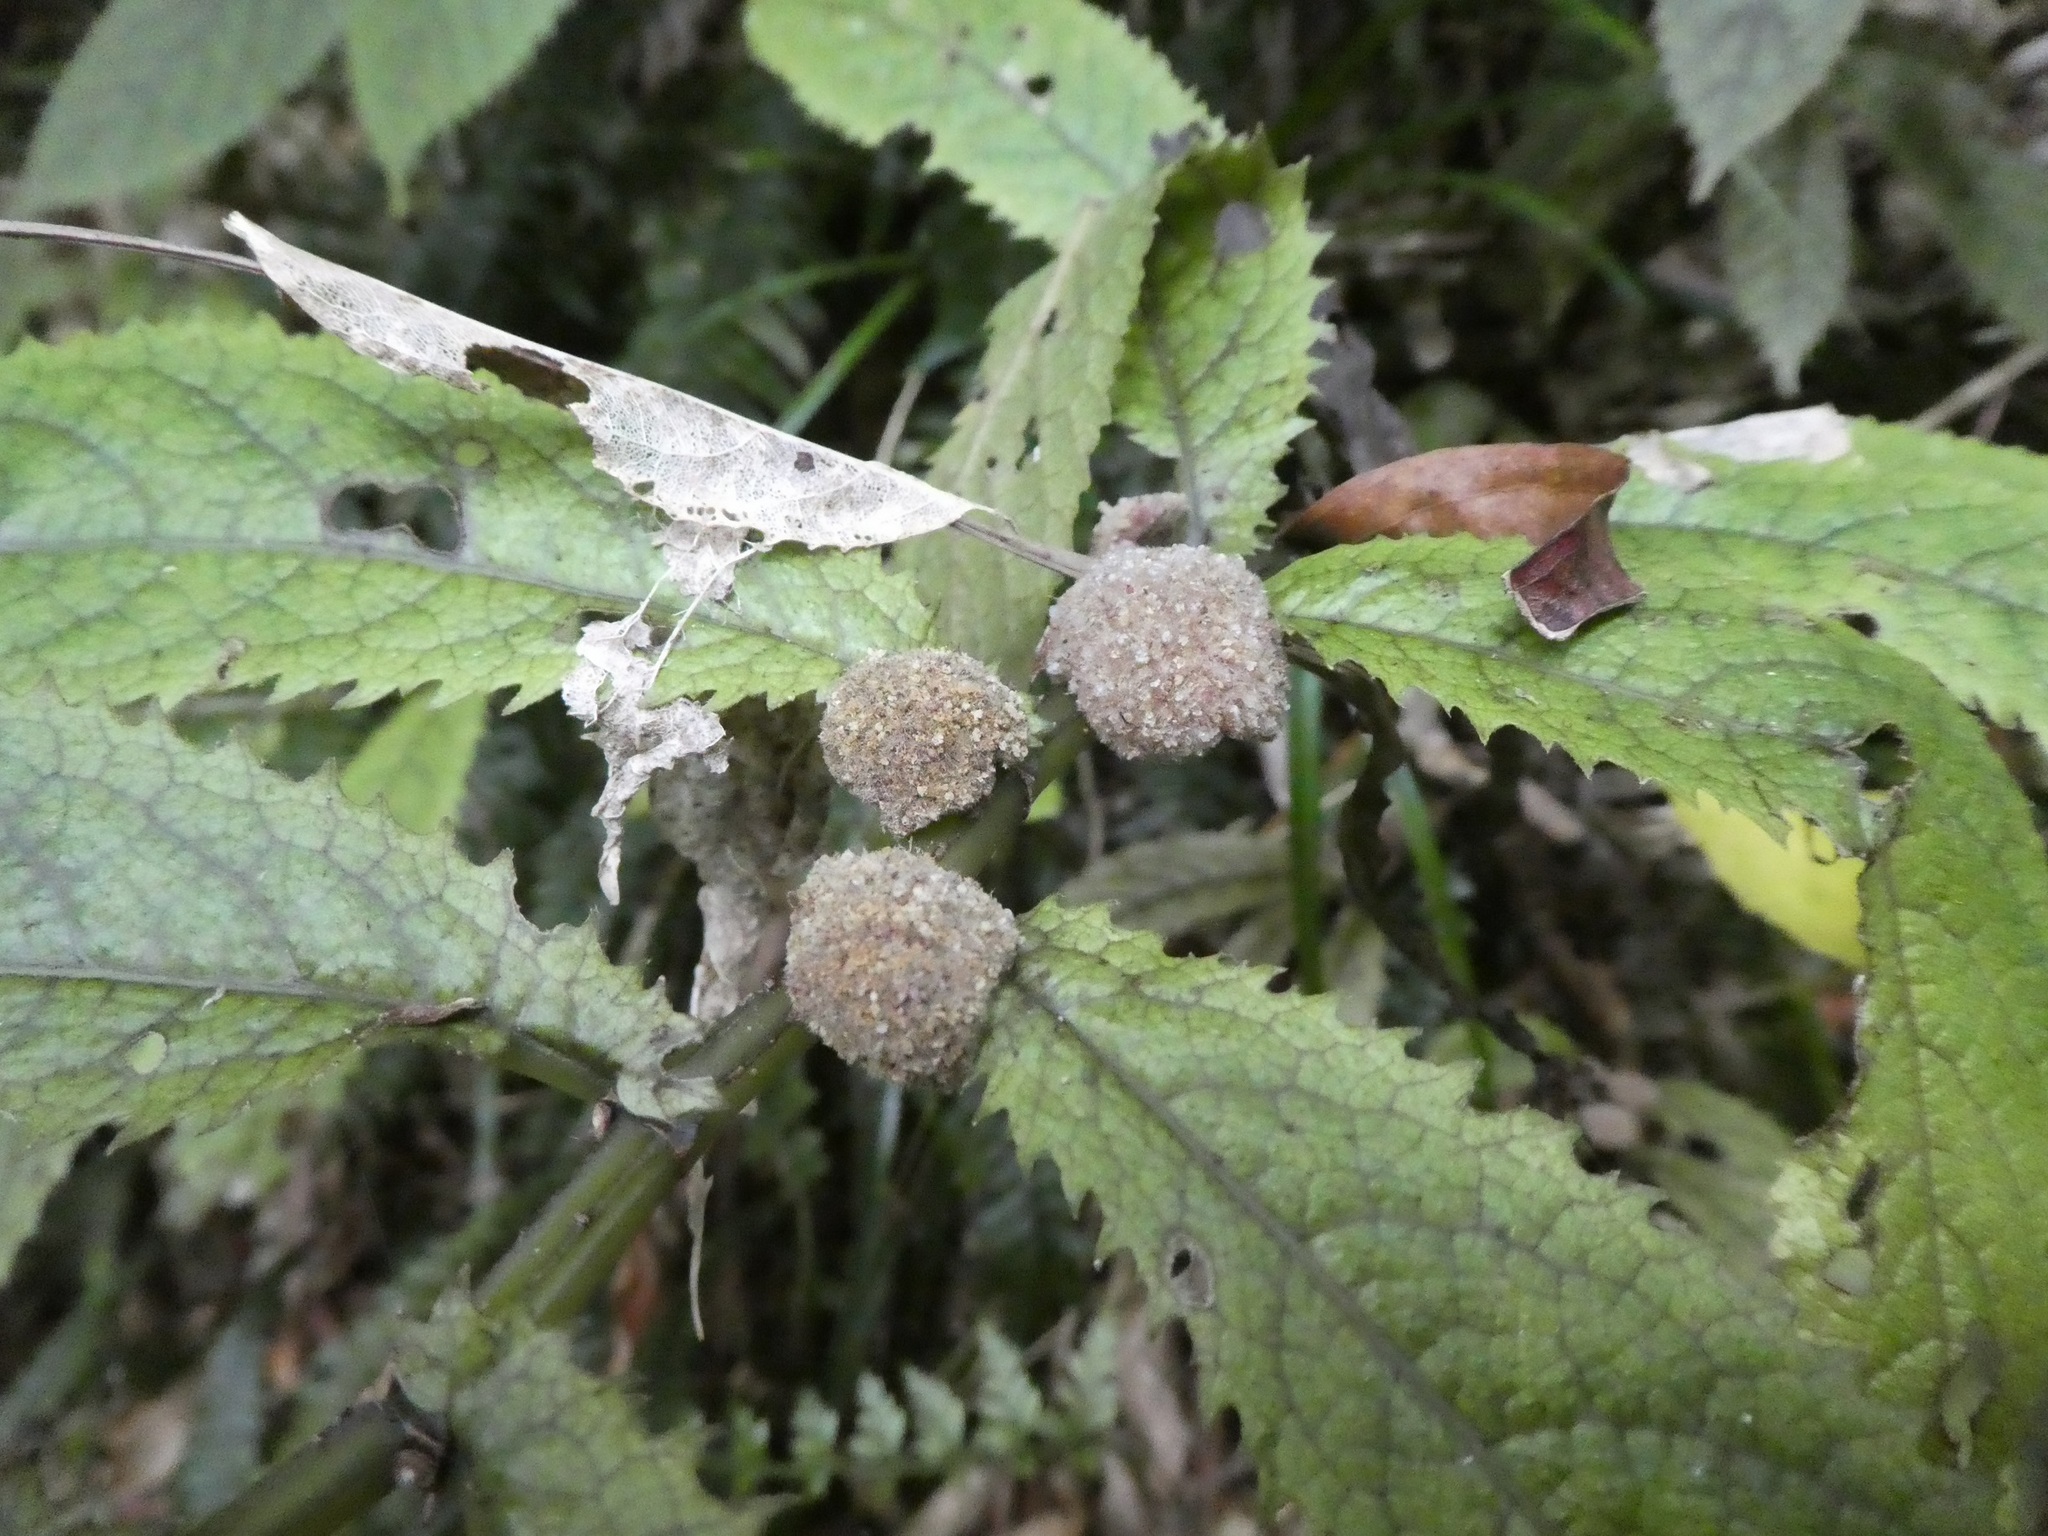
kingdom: Plantae
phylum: Tracheophyta
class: Magnoliopsida
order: Rosales
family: Urticaceae
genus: Elatostema
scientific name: Elatostema rugosum
